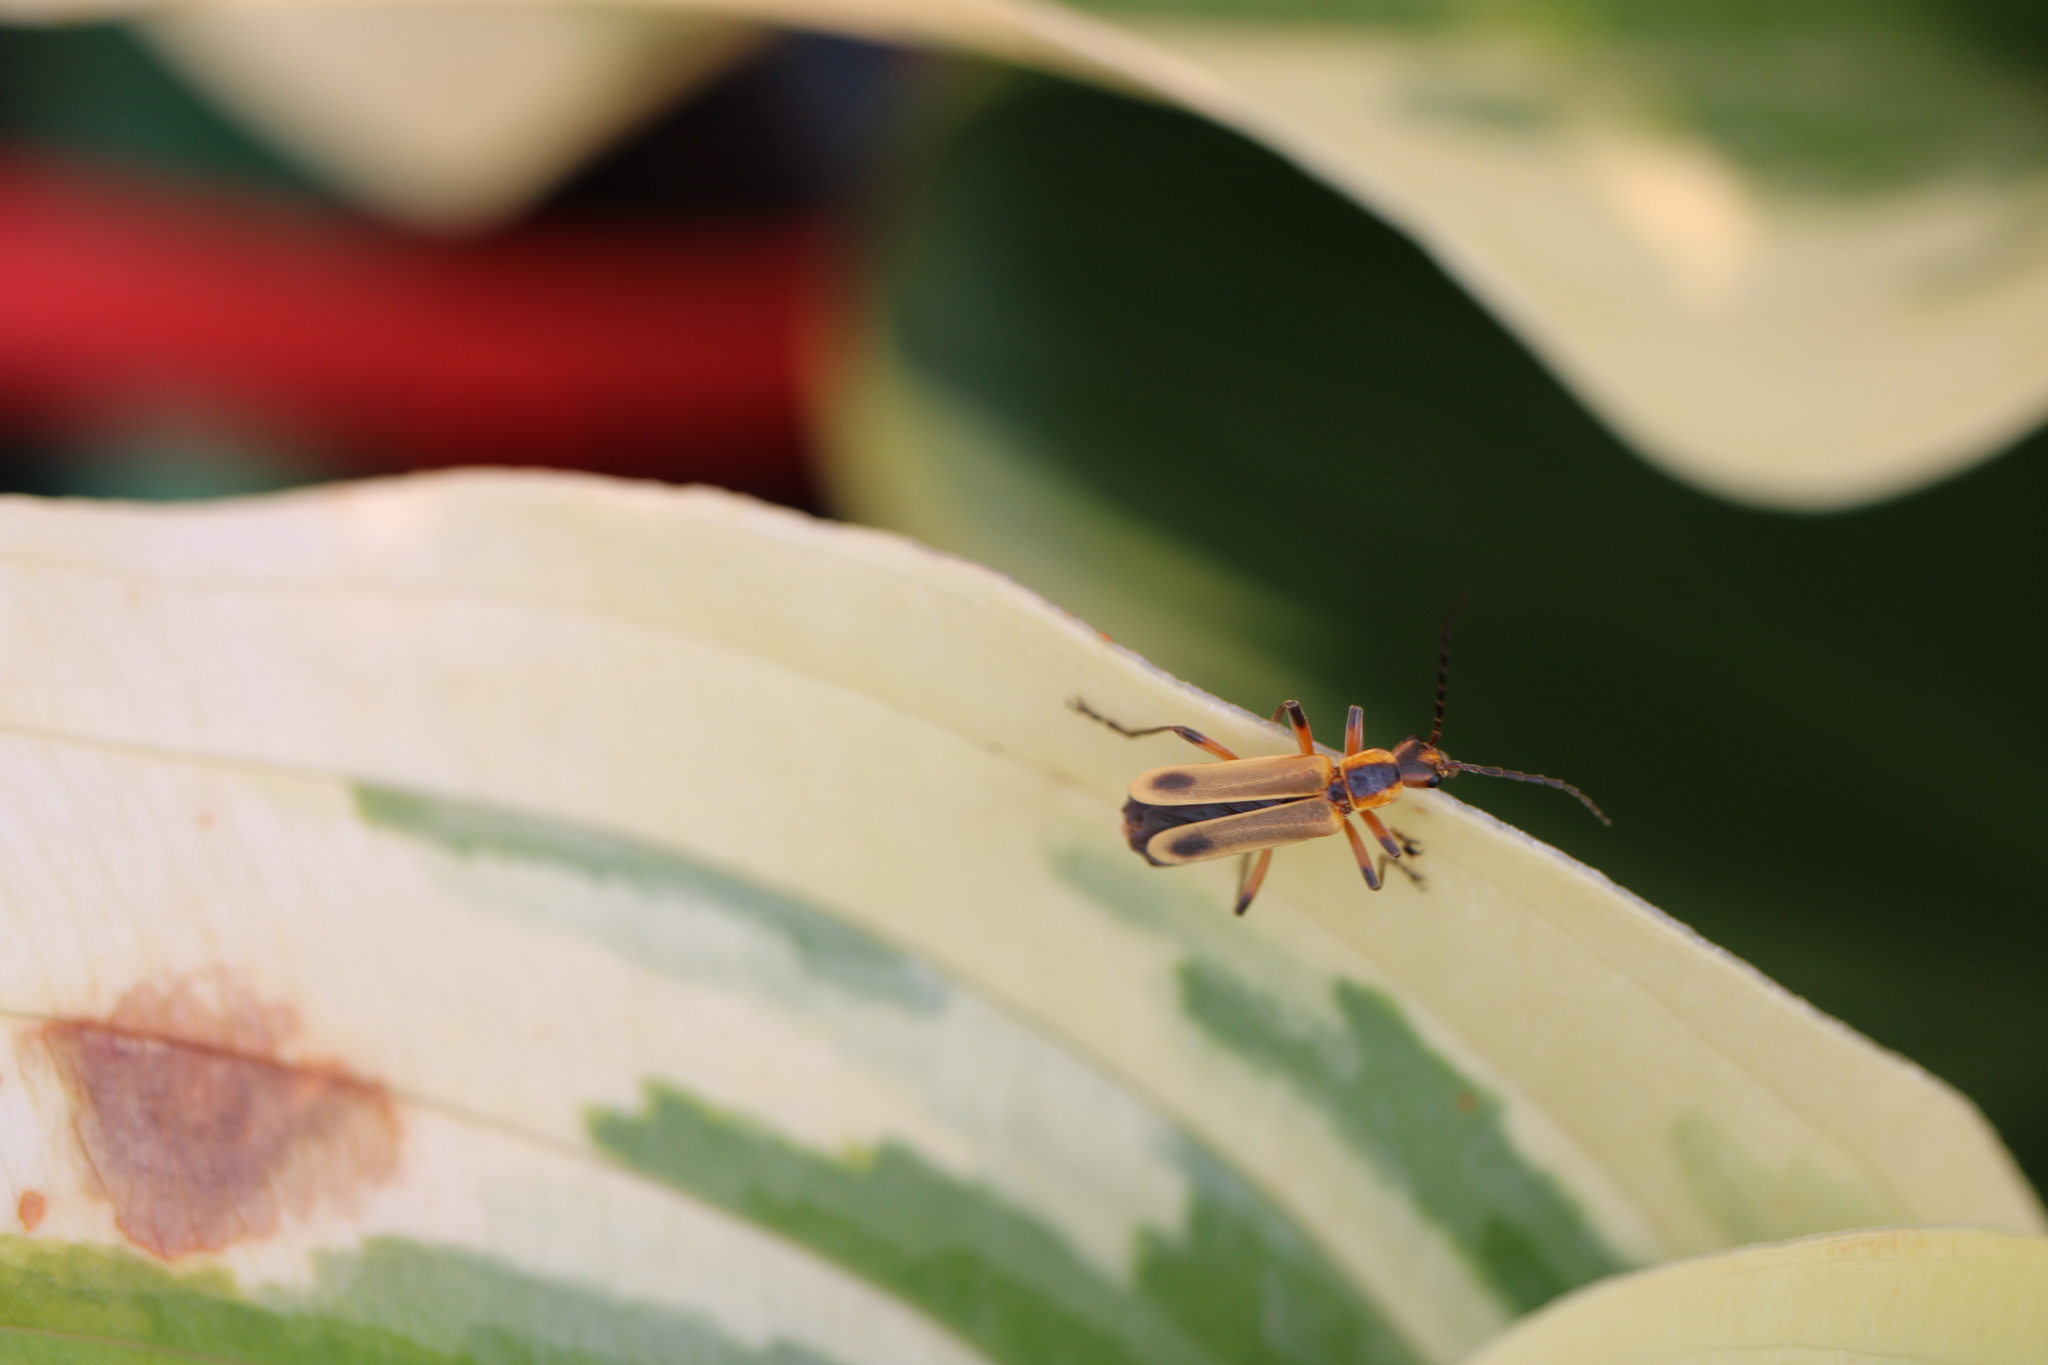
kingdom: Animalia
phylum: Arthropoda
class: Insecta
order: Coleoptera
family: Cantharidae
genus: Chauliognathus
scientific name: Chauliognathus marginatus
